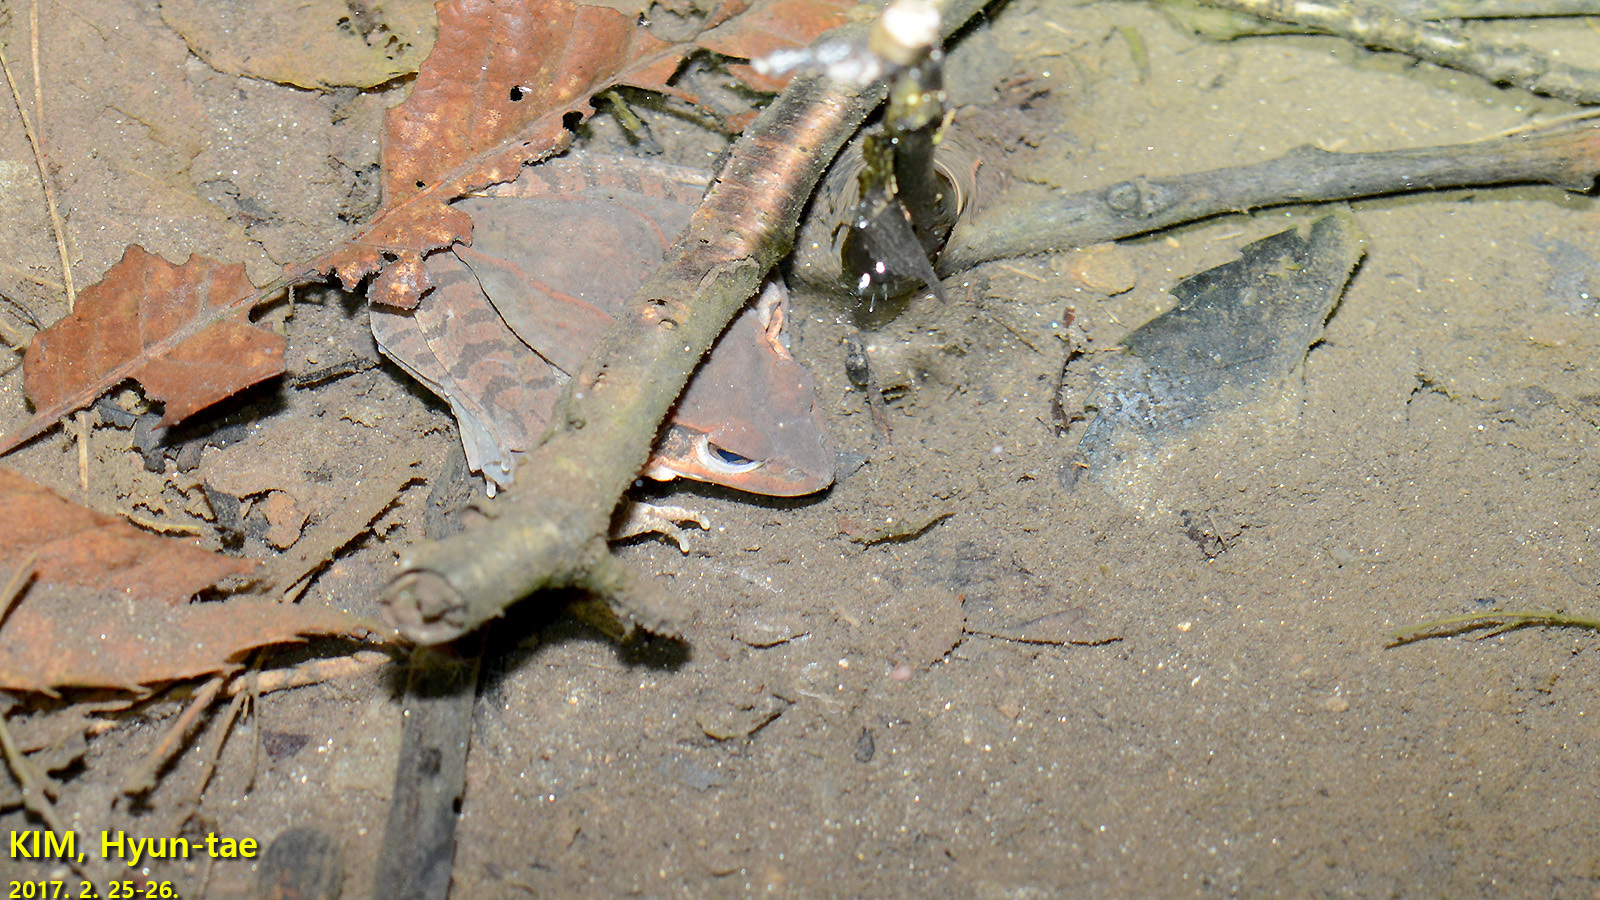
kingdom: Animalia
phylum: Chordata
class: Amphibia
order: Caudata
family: Hynobiidae
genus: Hynobius
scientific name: Hynobius leechii
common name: Gensan salamander
